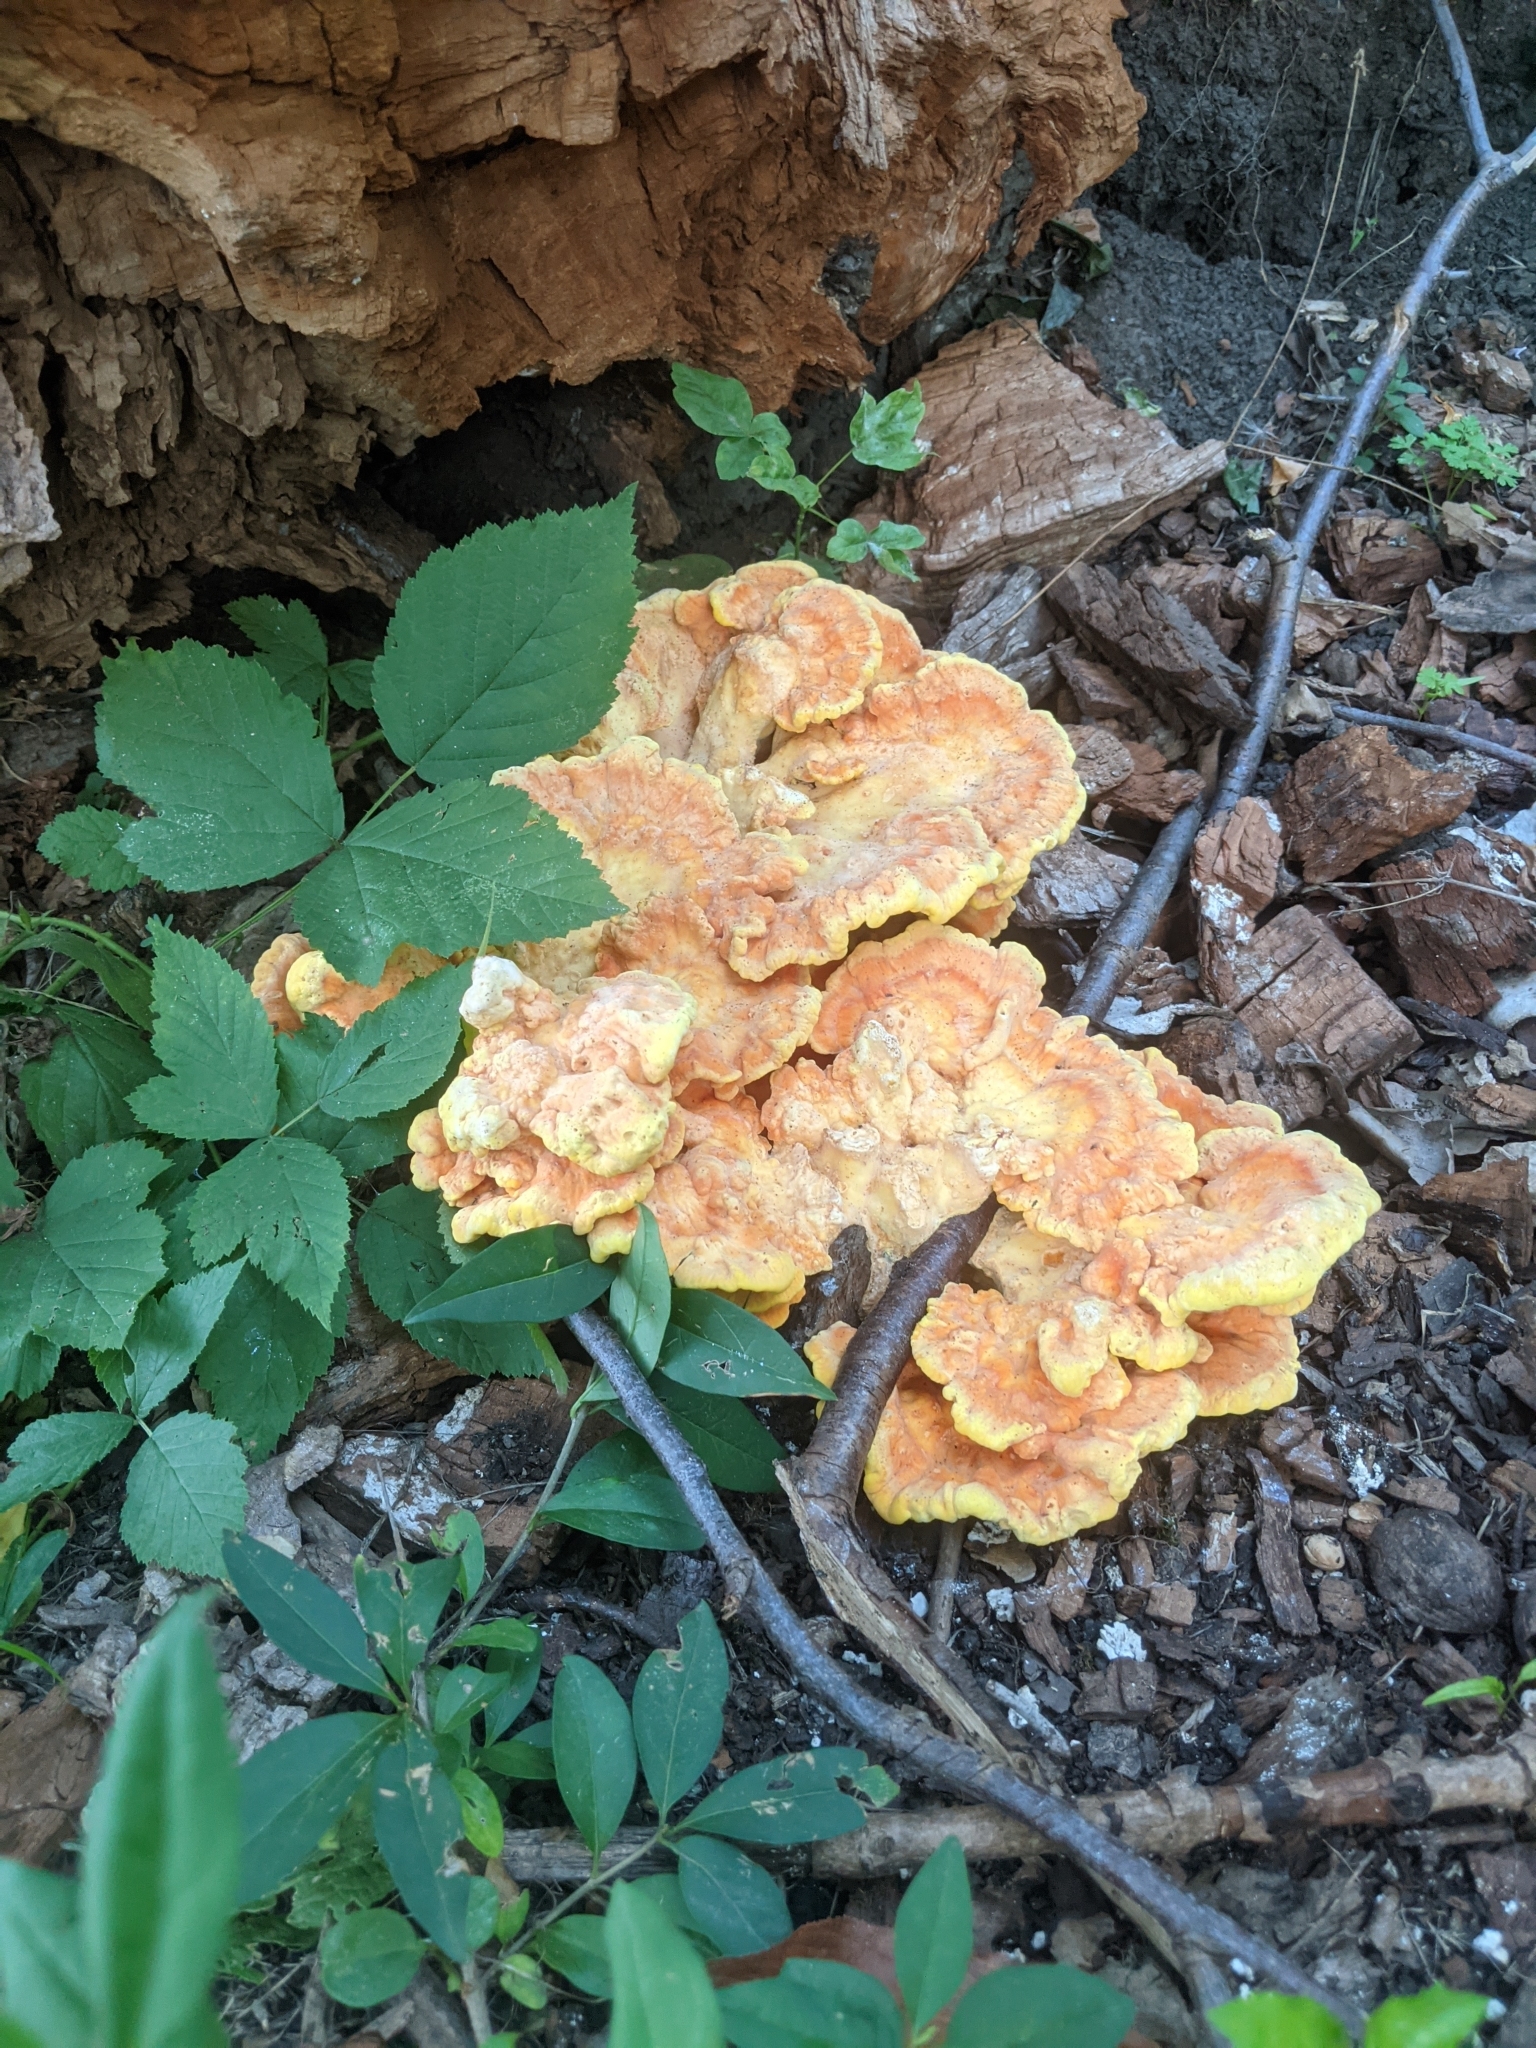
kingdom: Fungi
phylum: Basidiomycota
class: Agaricomycetes
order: Polyporales
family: Laetiporaceae
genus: Laetiporus
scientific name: Laetiporus sulphureus
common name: Chicken of the woods
